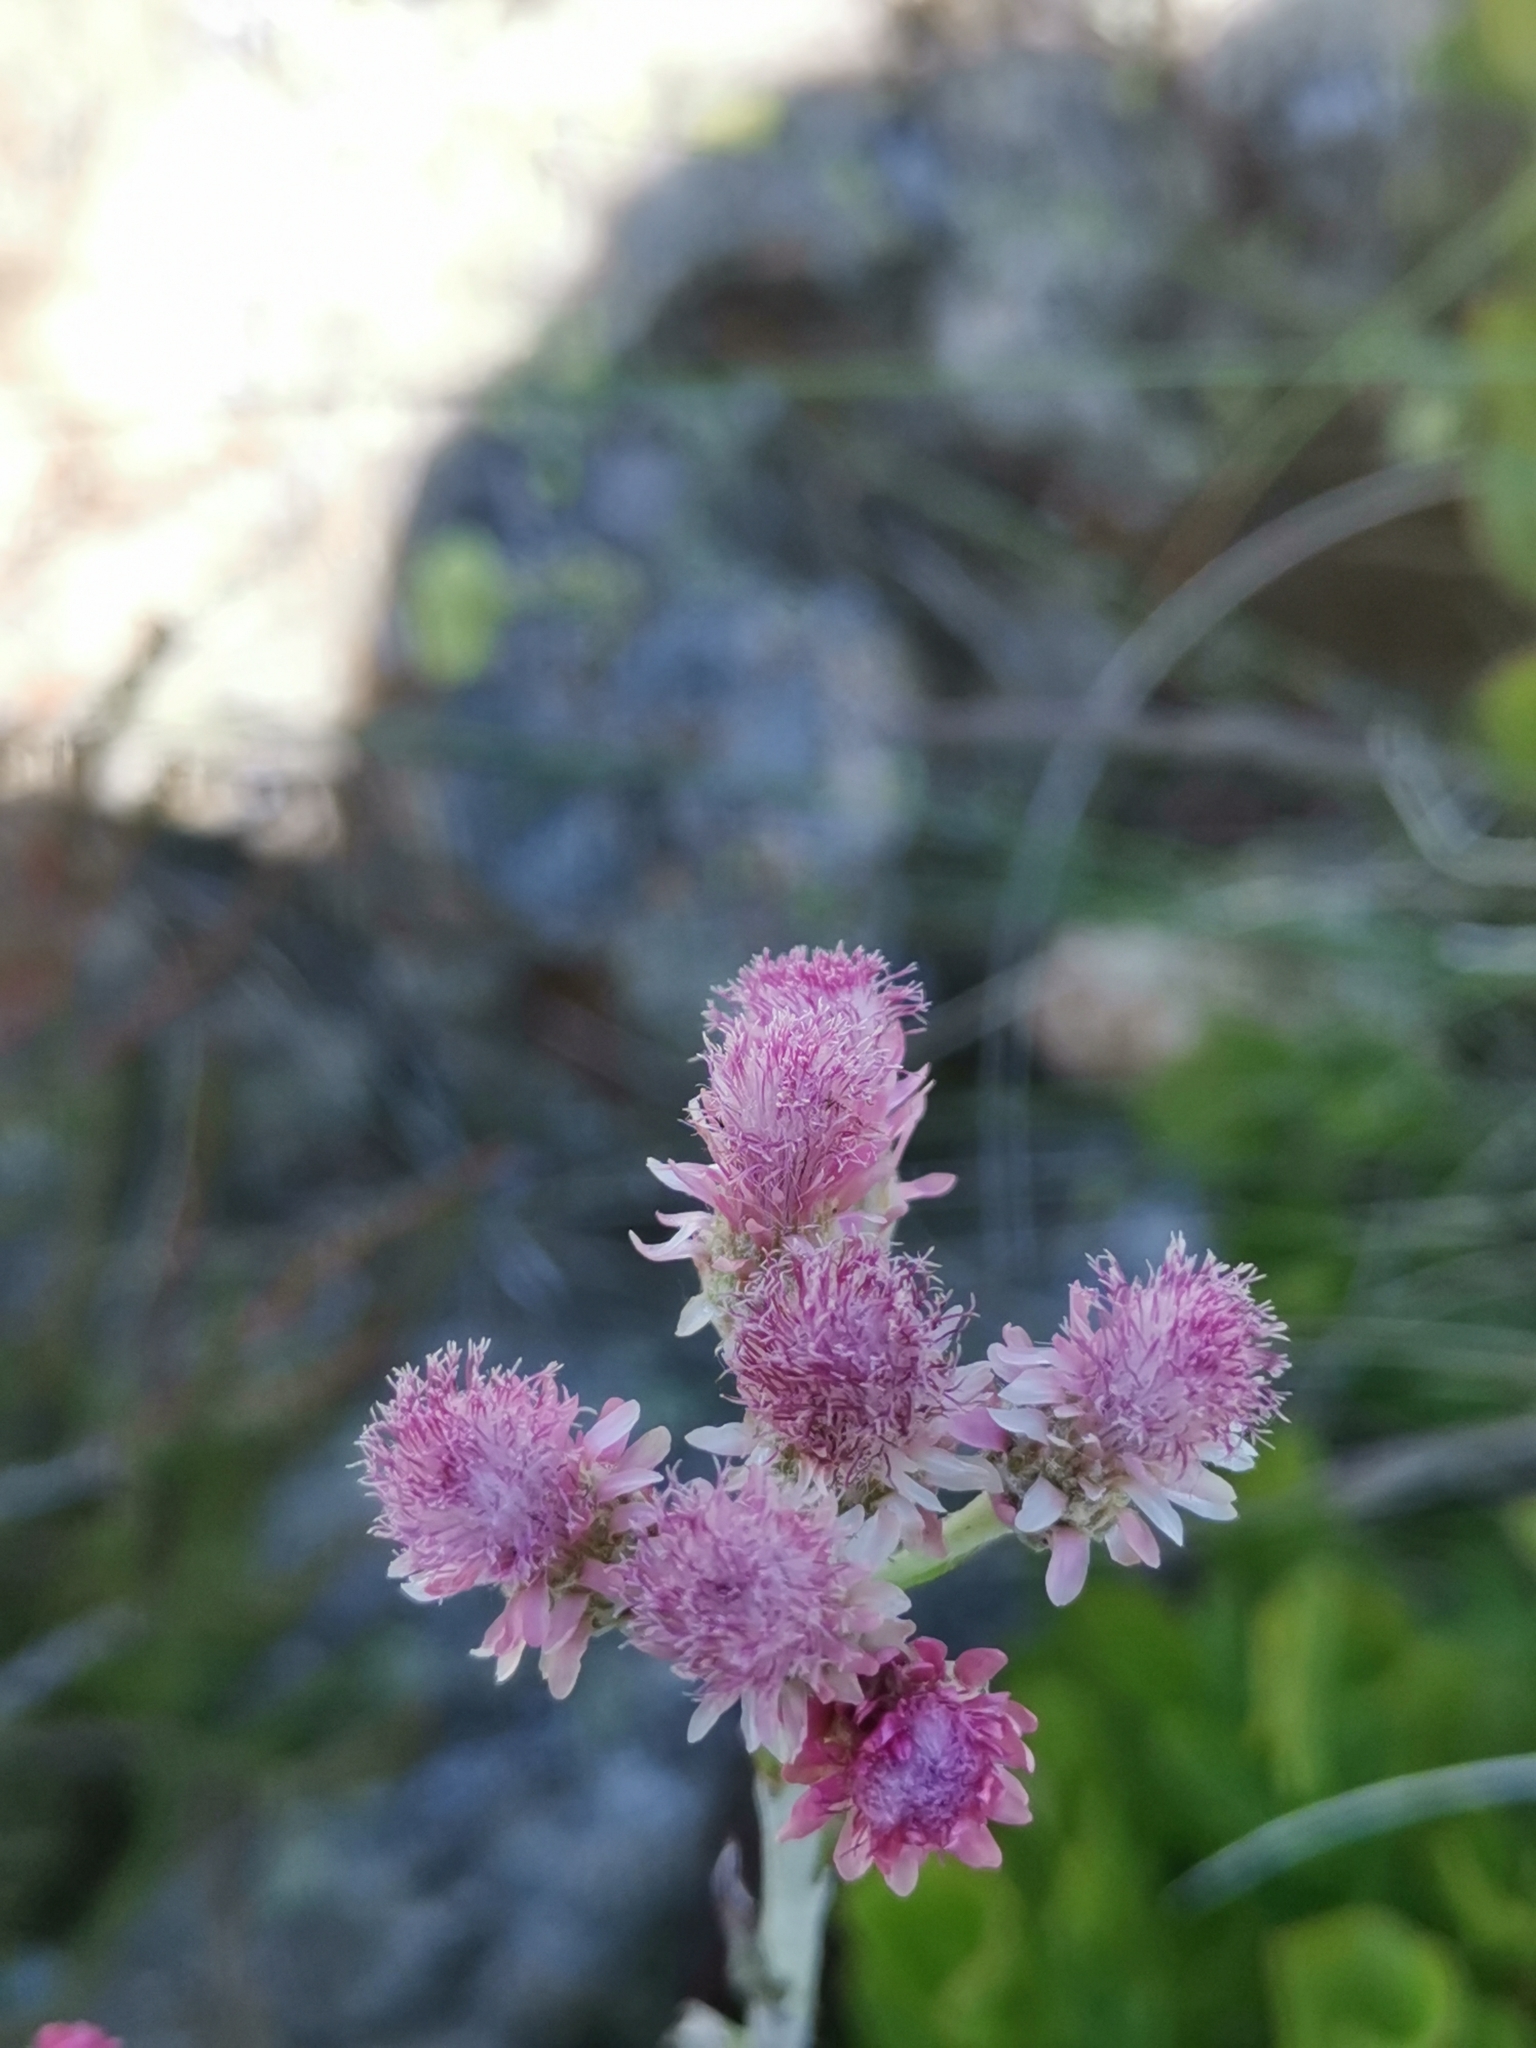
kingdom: Plantae
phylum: Tracheophyta
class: Magnoliopsida
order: Asterales
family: Asteraceae
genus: Antennaria
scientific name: Antennaria dioica
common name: Mountain everlasting
